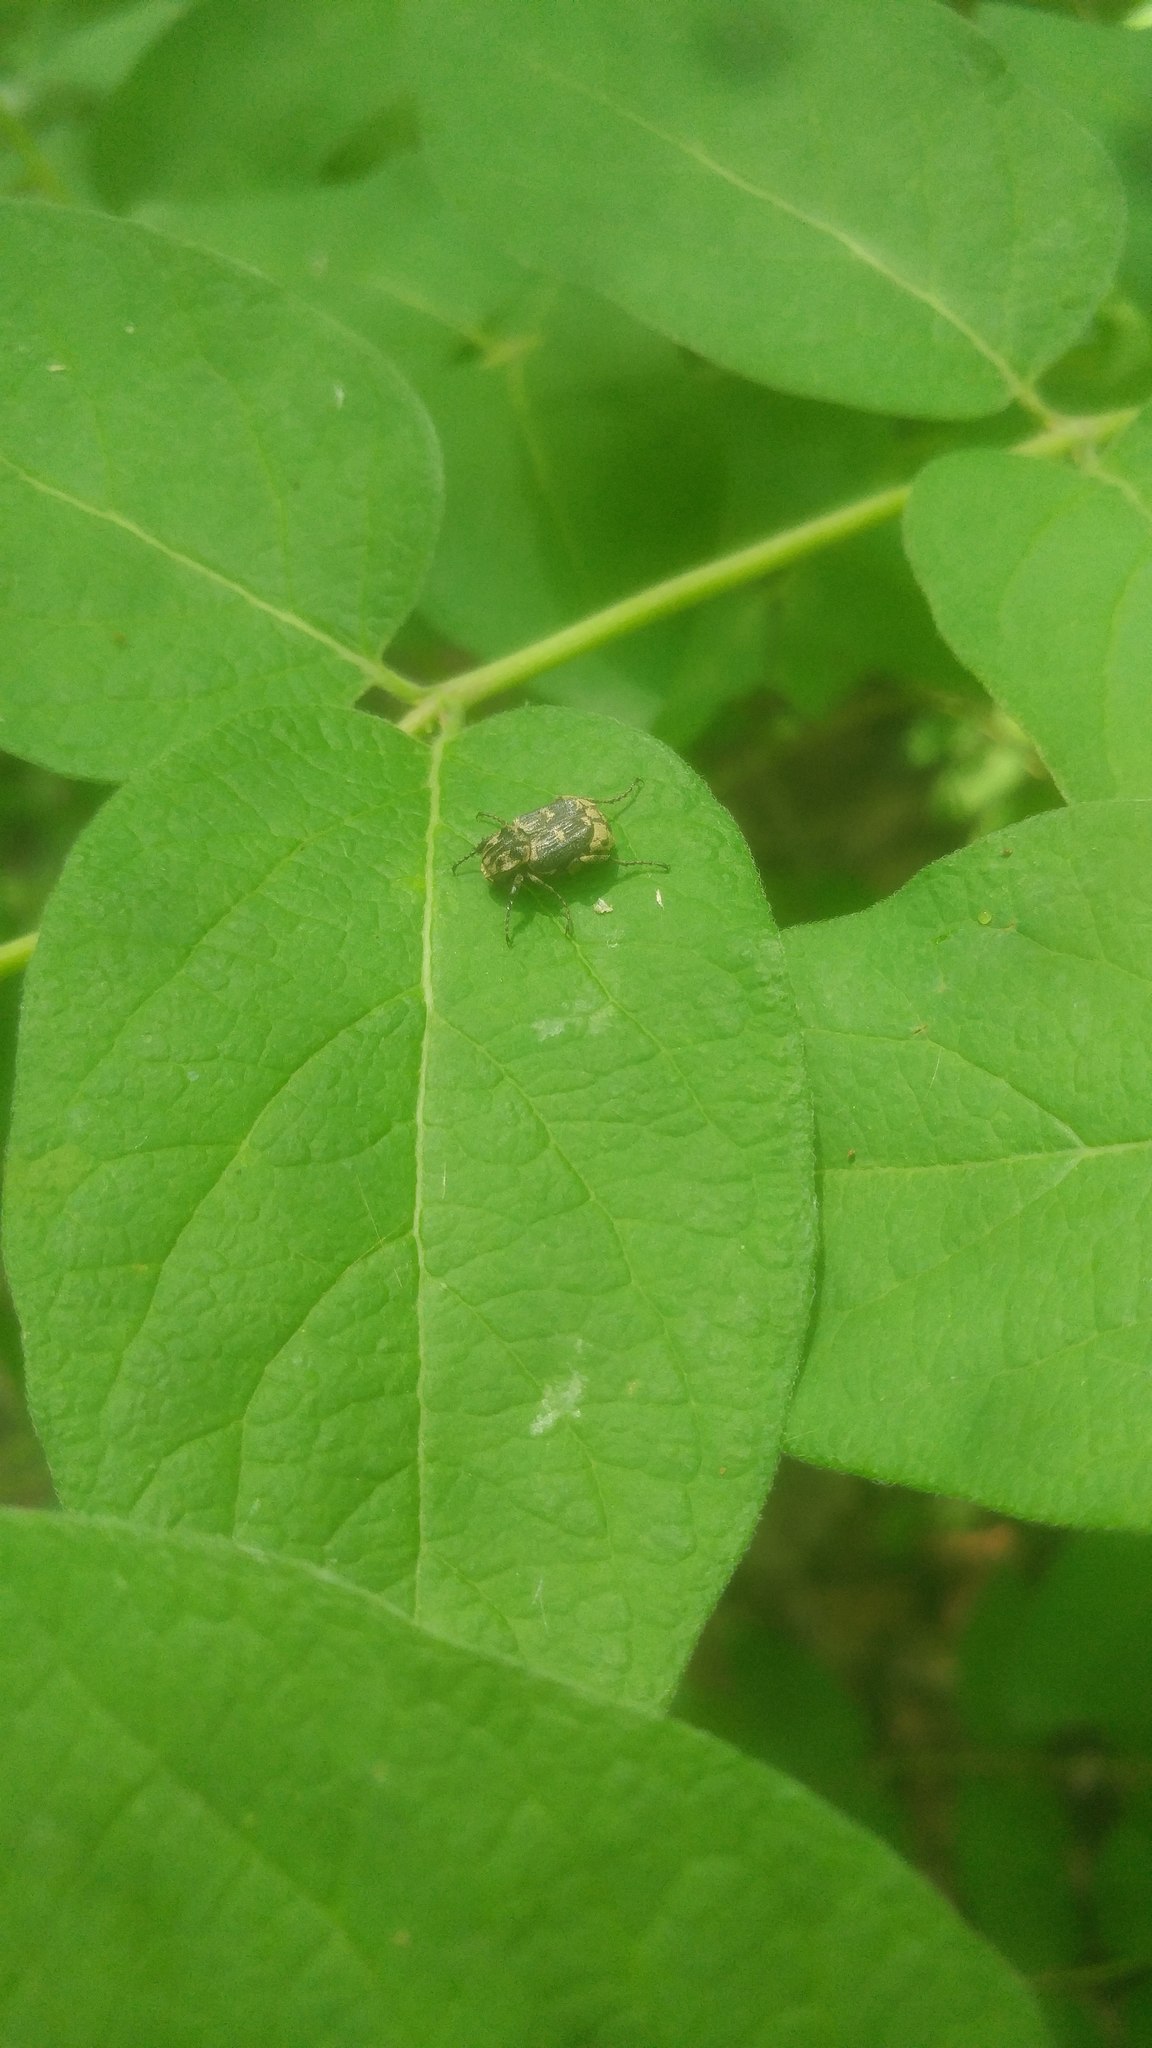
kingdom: Animalia
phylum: Arthropoda
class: Insecta
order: Coleoptera
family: Scarabaeidae
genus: Valgus
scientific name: Valgus hemipterus
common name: Bug flower chafer
